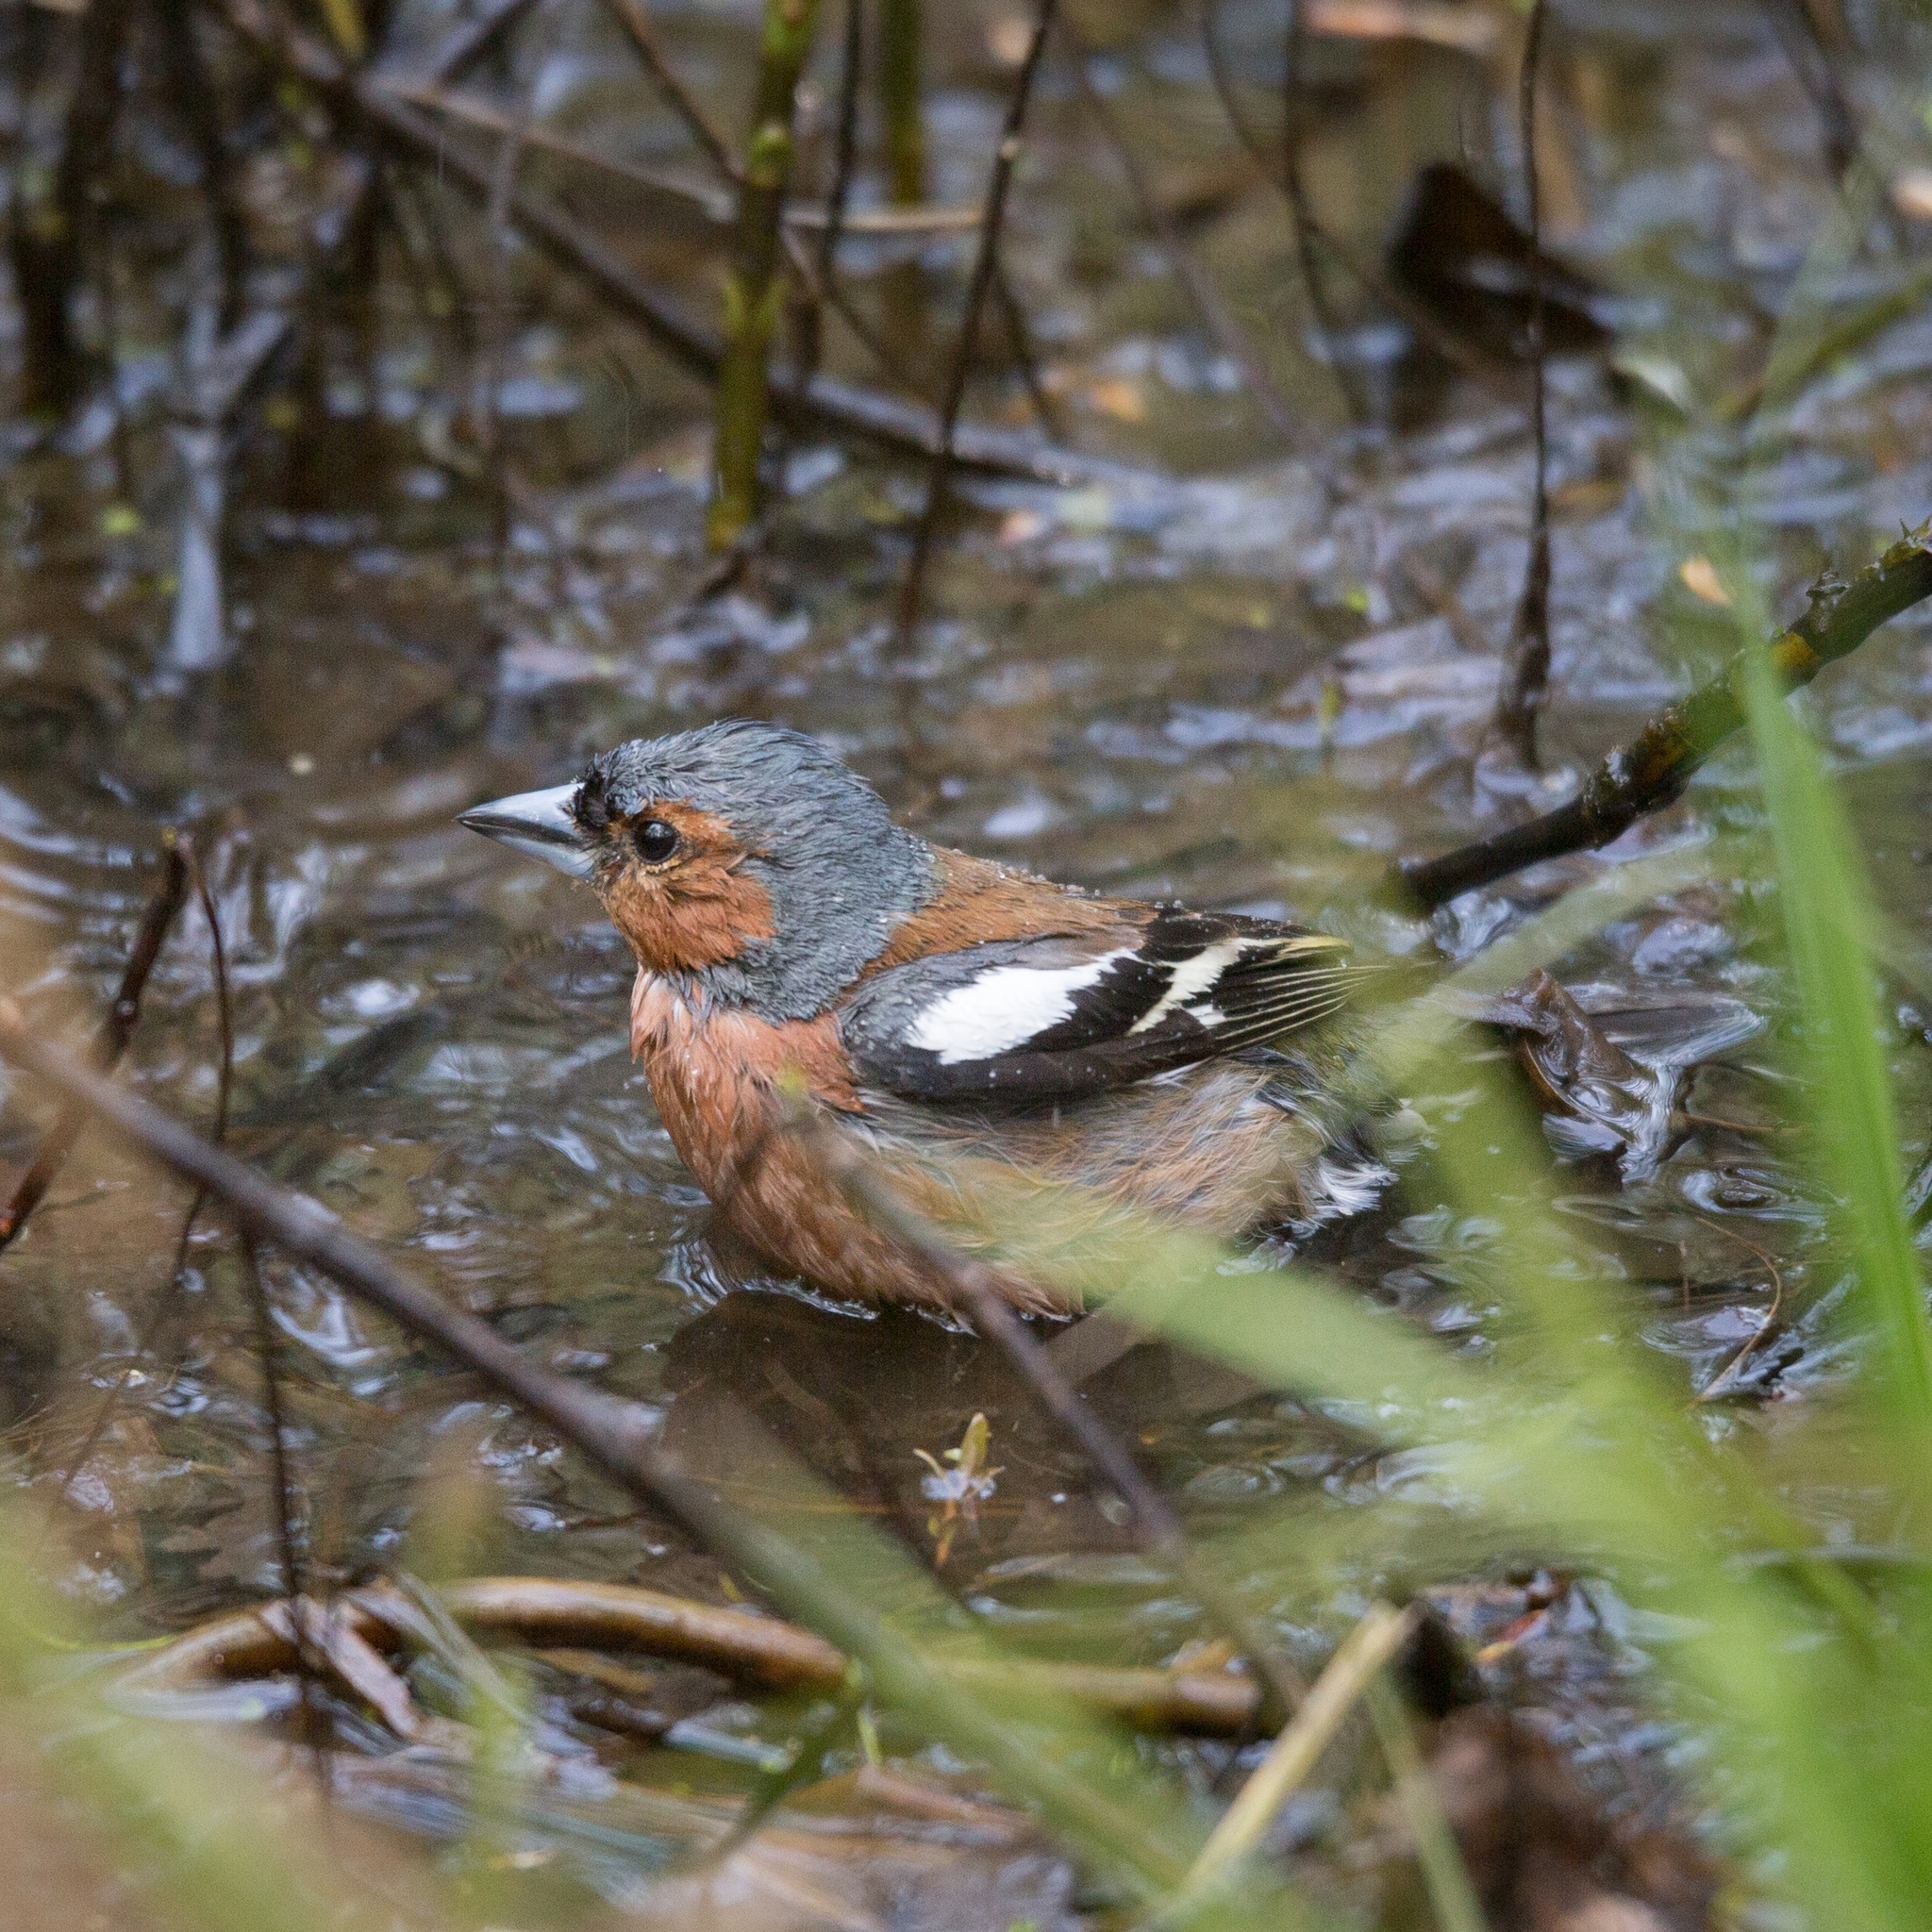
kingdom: Animalia
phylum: Chordata
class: Aves
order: Passeriformes
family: Fringillidae
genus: Fringilla
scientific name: Fringilla coelebs
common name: Common chaffinch
